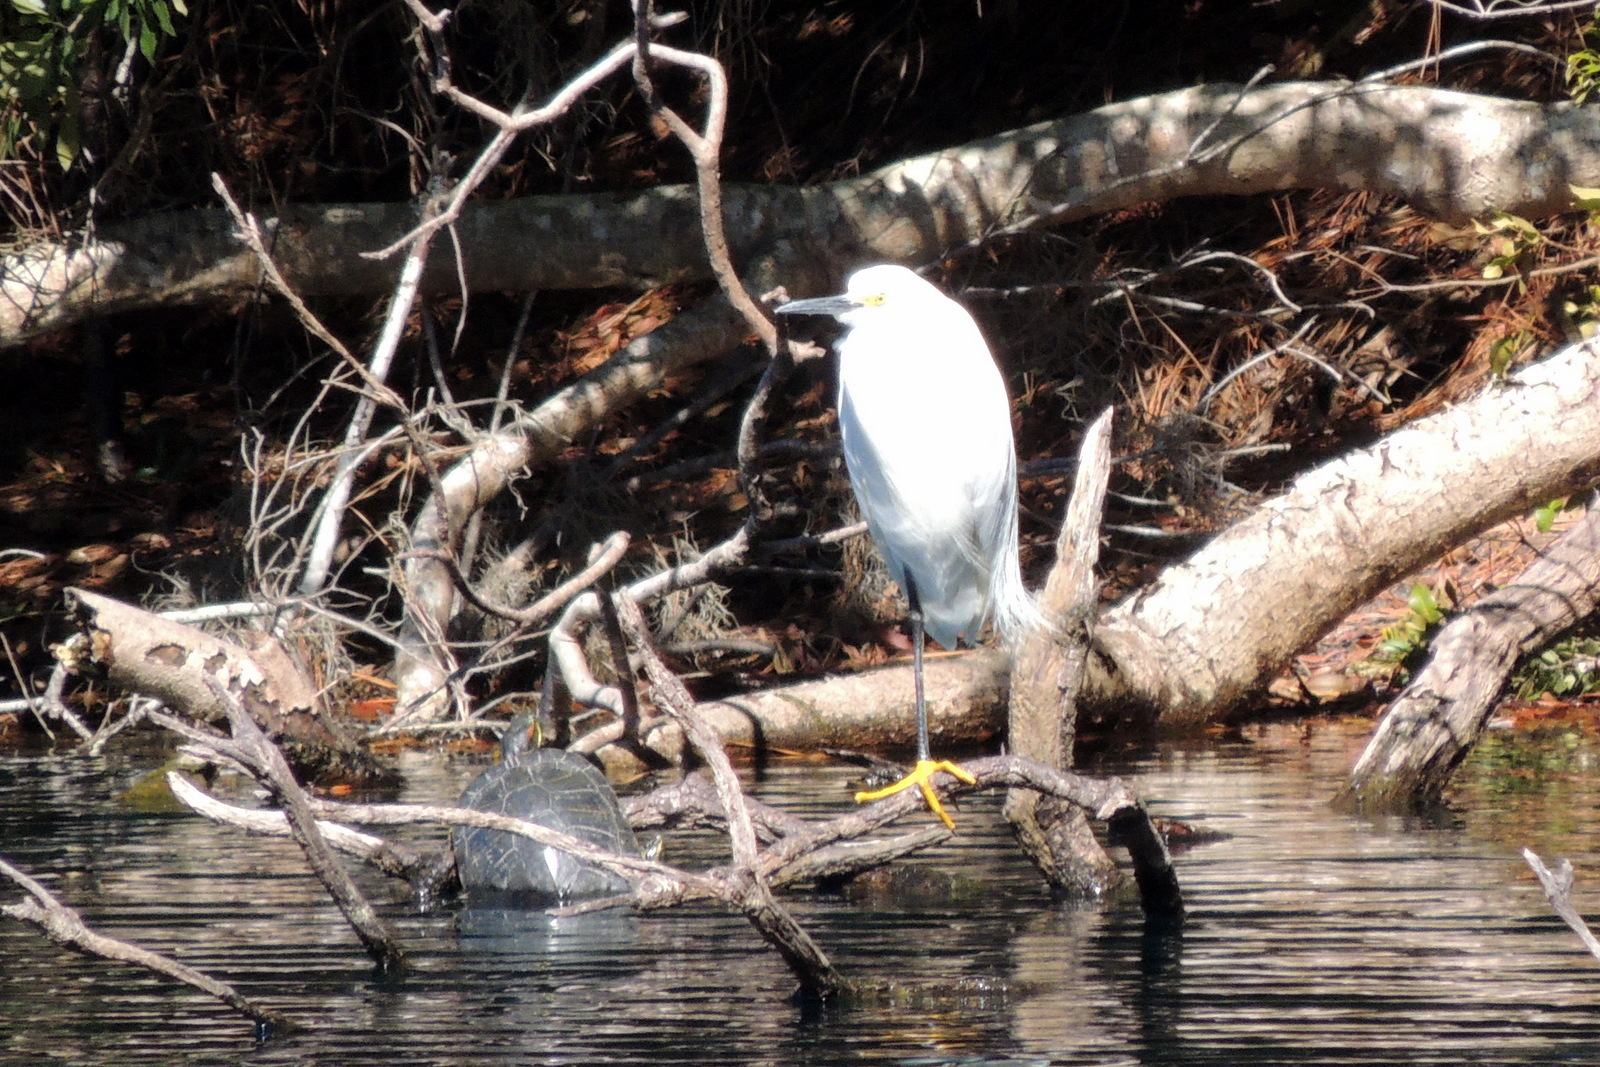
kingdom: Animalia
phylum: Chordata
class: Aves
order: Pelecaniformes
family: Ardeidae
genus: Egretta
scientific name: Egretta thula
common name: Snowy egret
